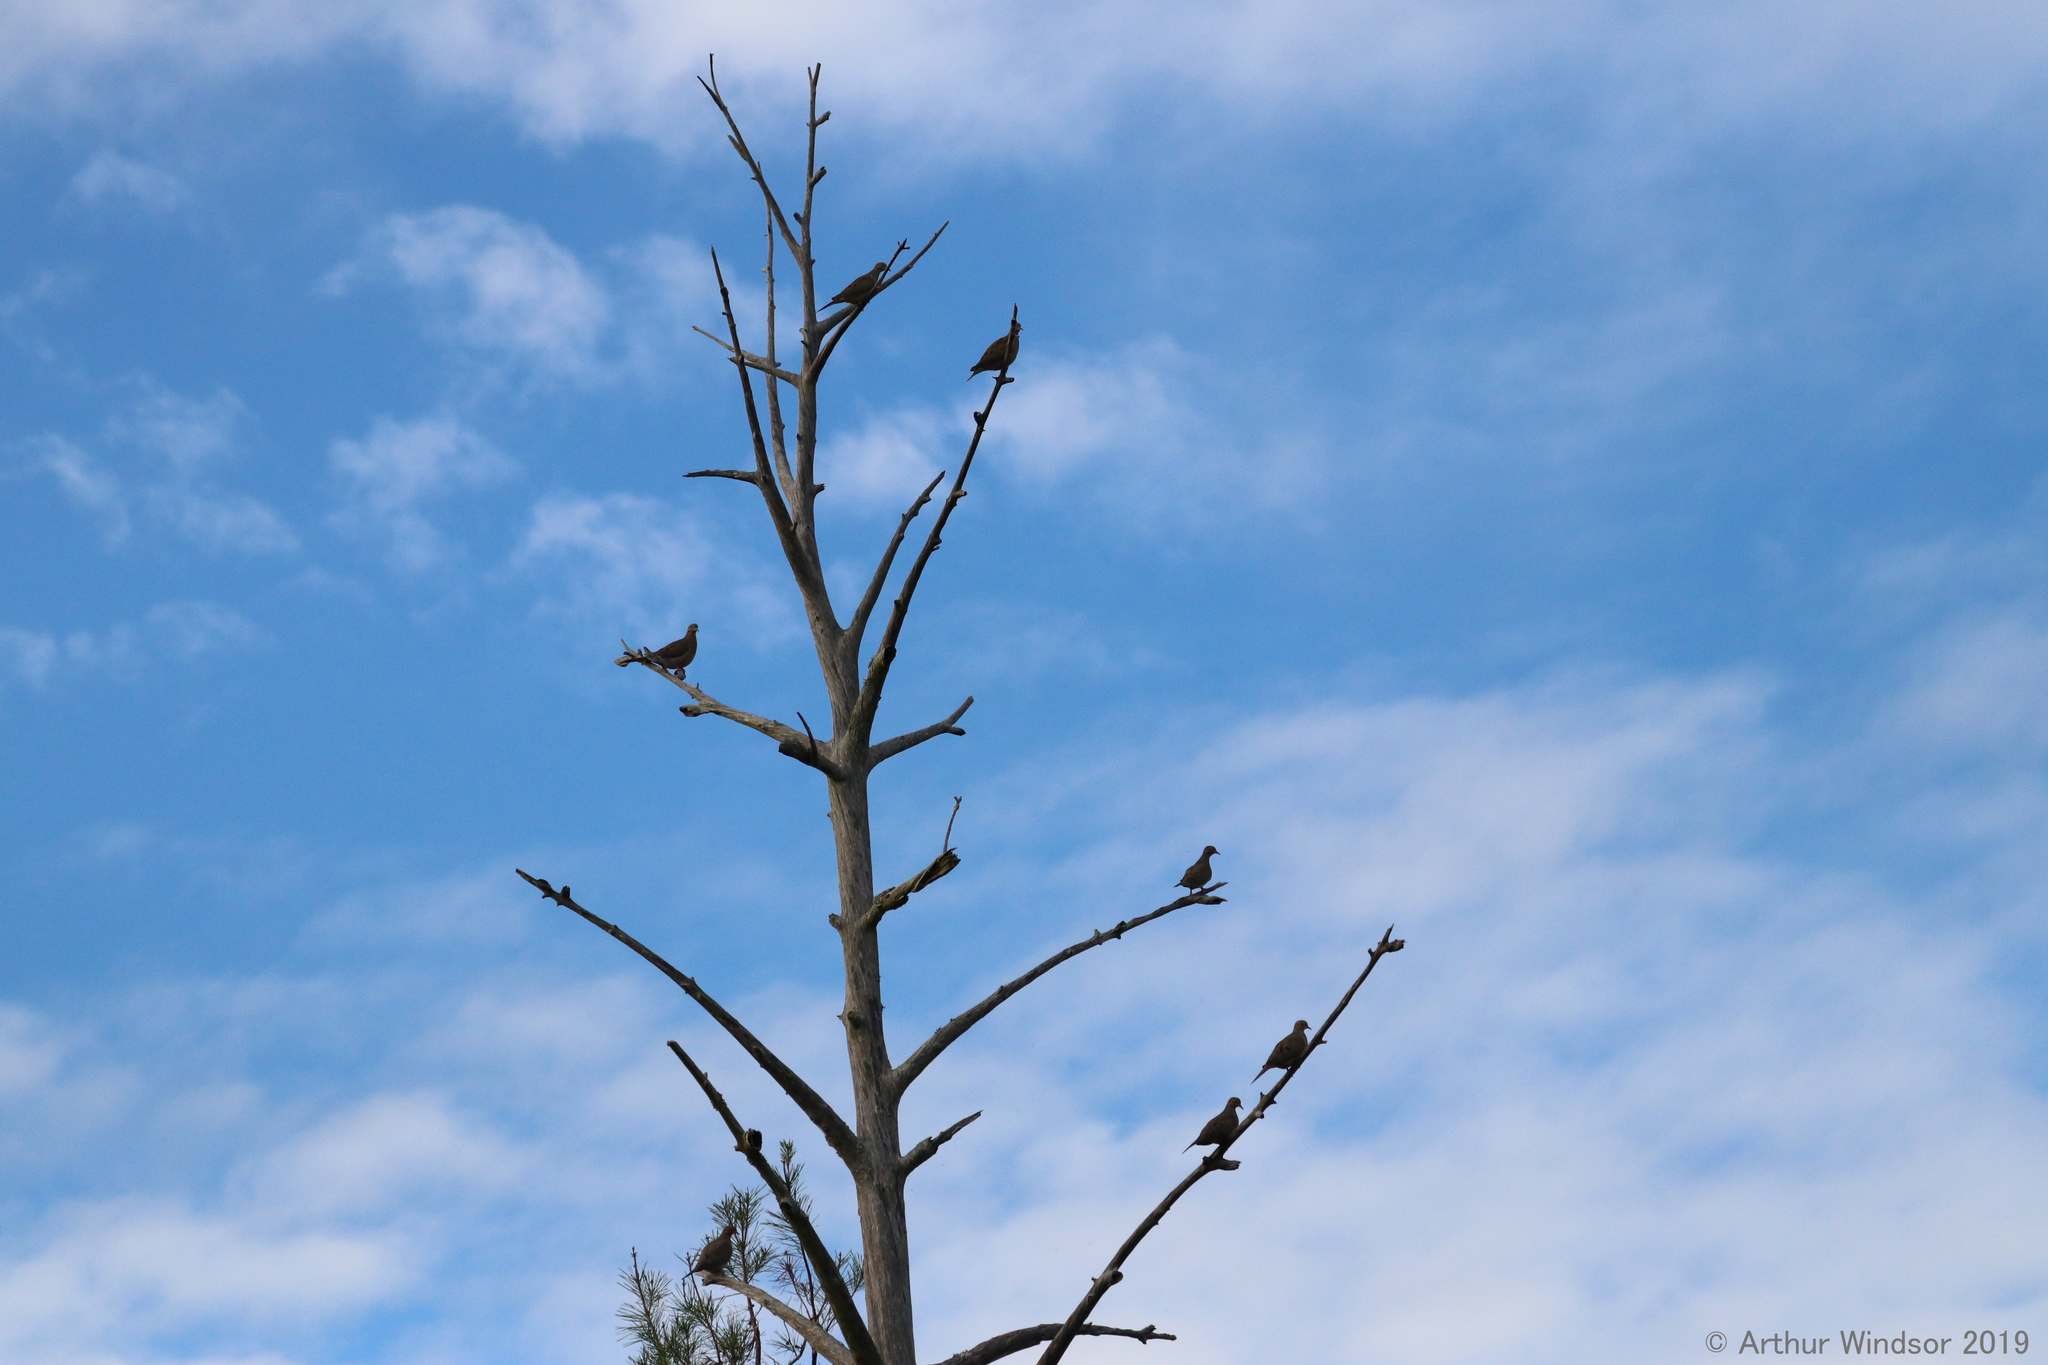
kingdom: Animalia
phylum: Chordata
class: Aves
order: Columbiformes
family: Columbidae
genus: Zenaida
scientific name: Zenaida macroura
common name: Mourning dove
